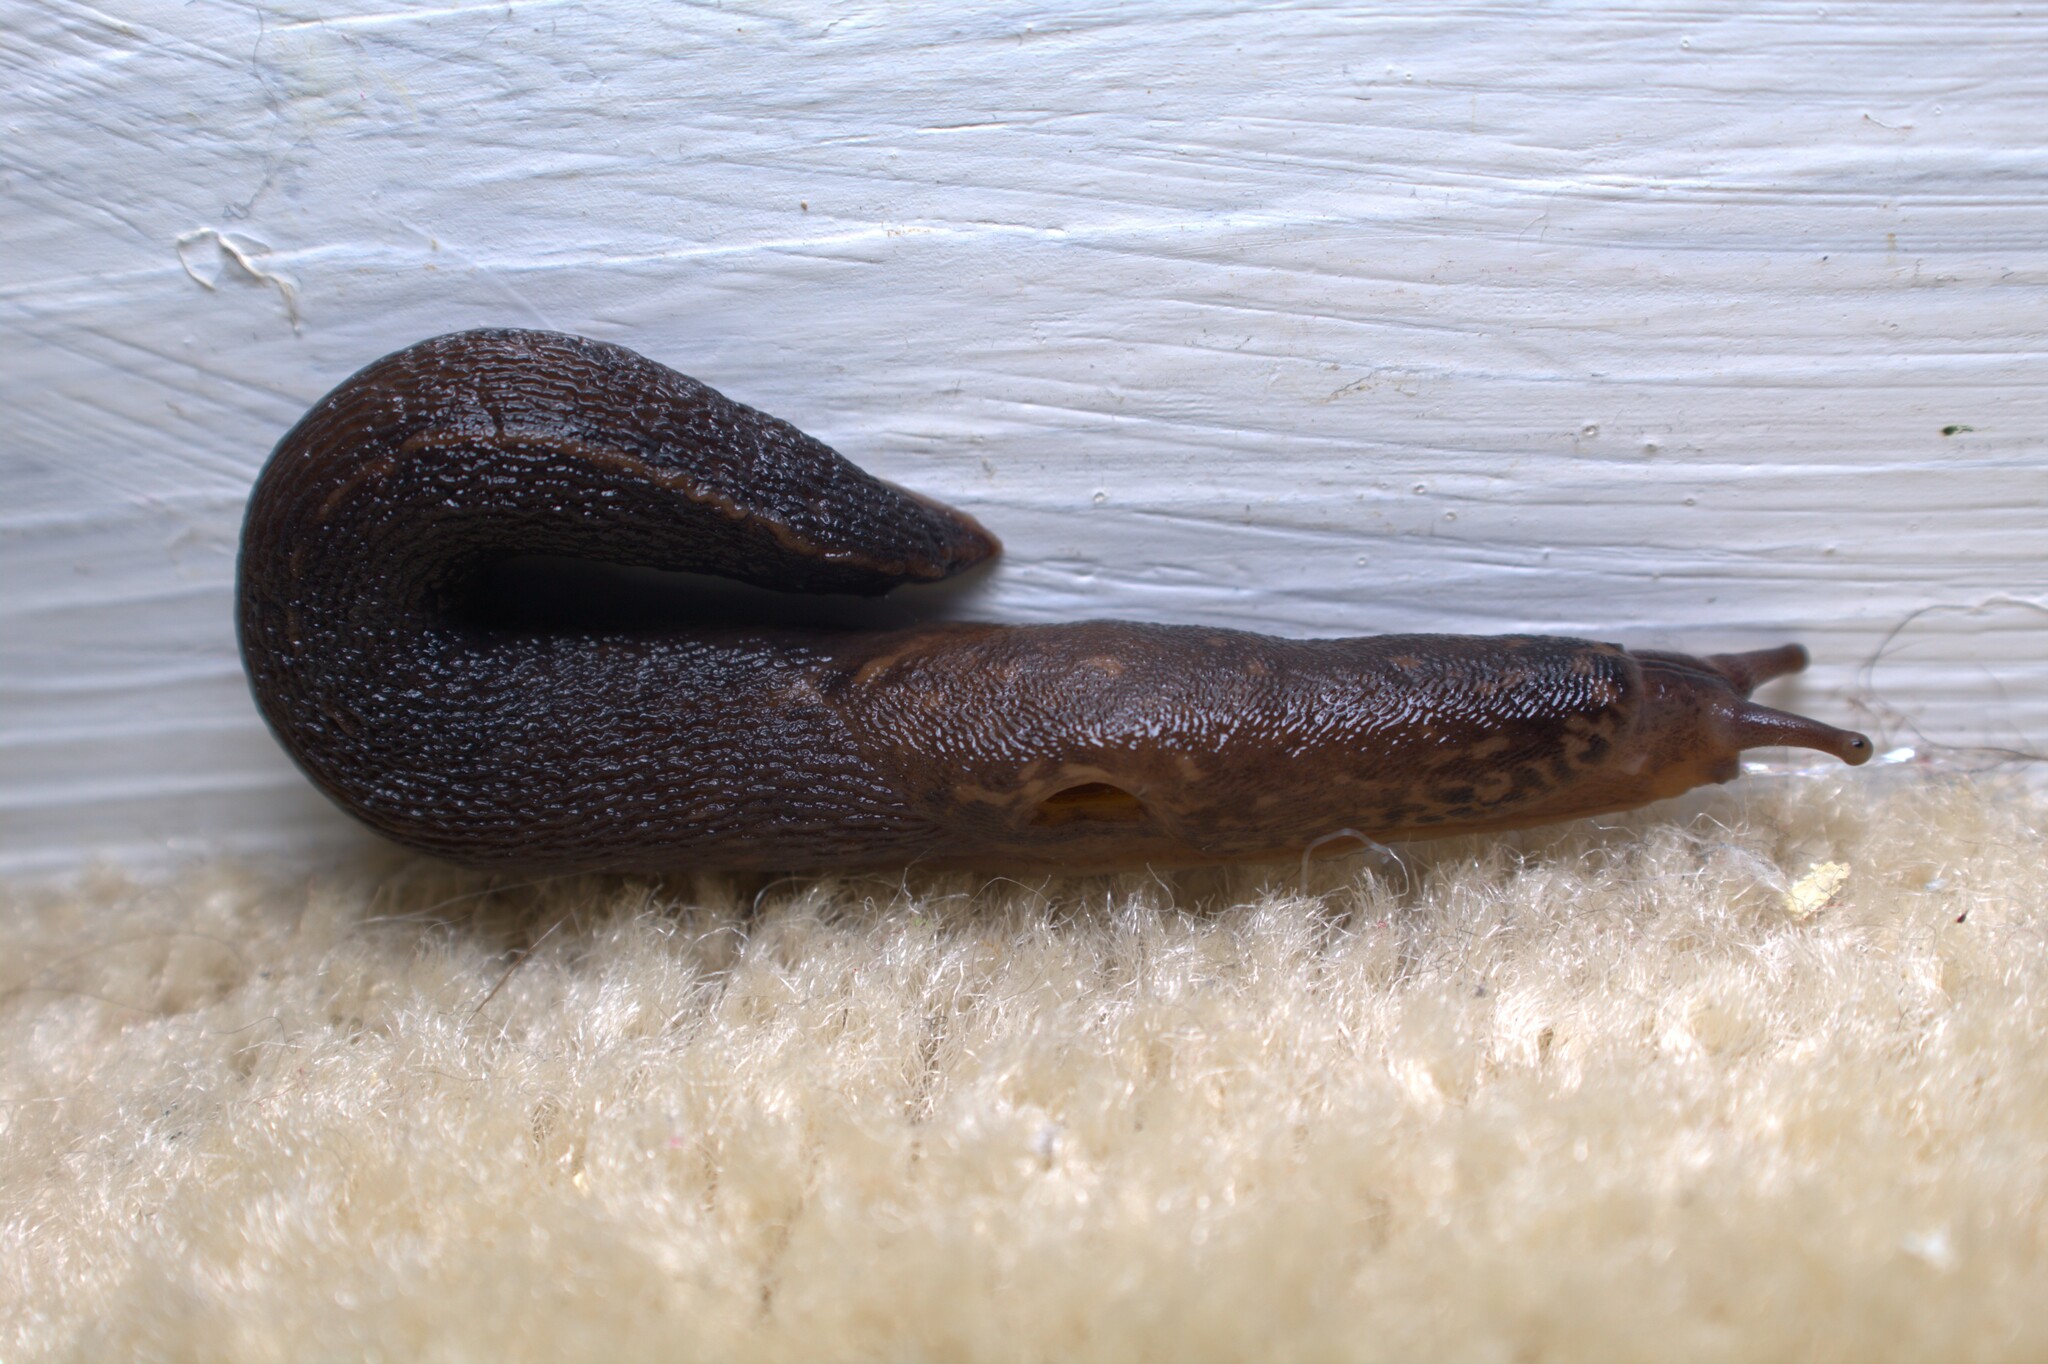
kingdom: Animalia
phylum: Mollusca
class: Gastropoda
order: Stylommatophora
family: Limacidae
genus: Limax
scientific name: Limax maximus
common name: Great grey slug
